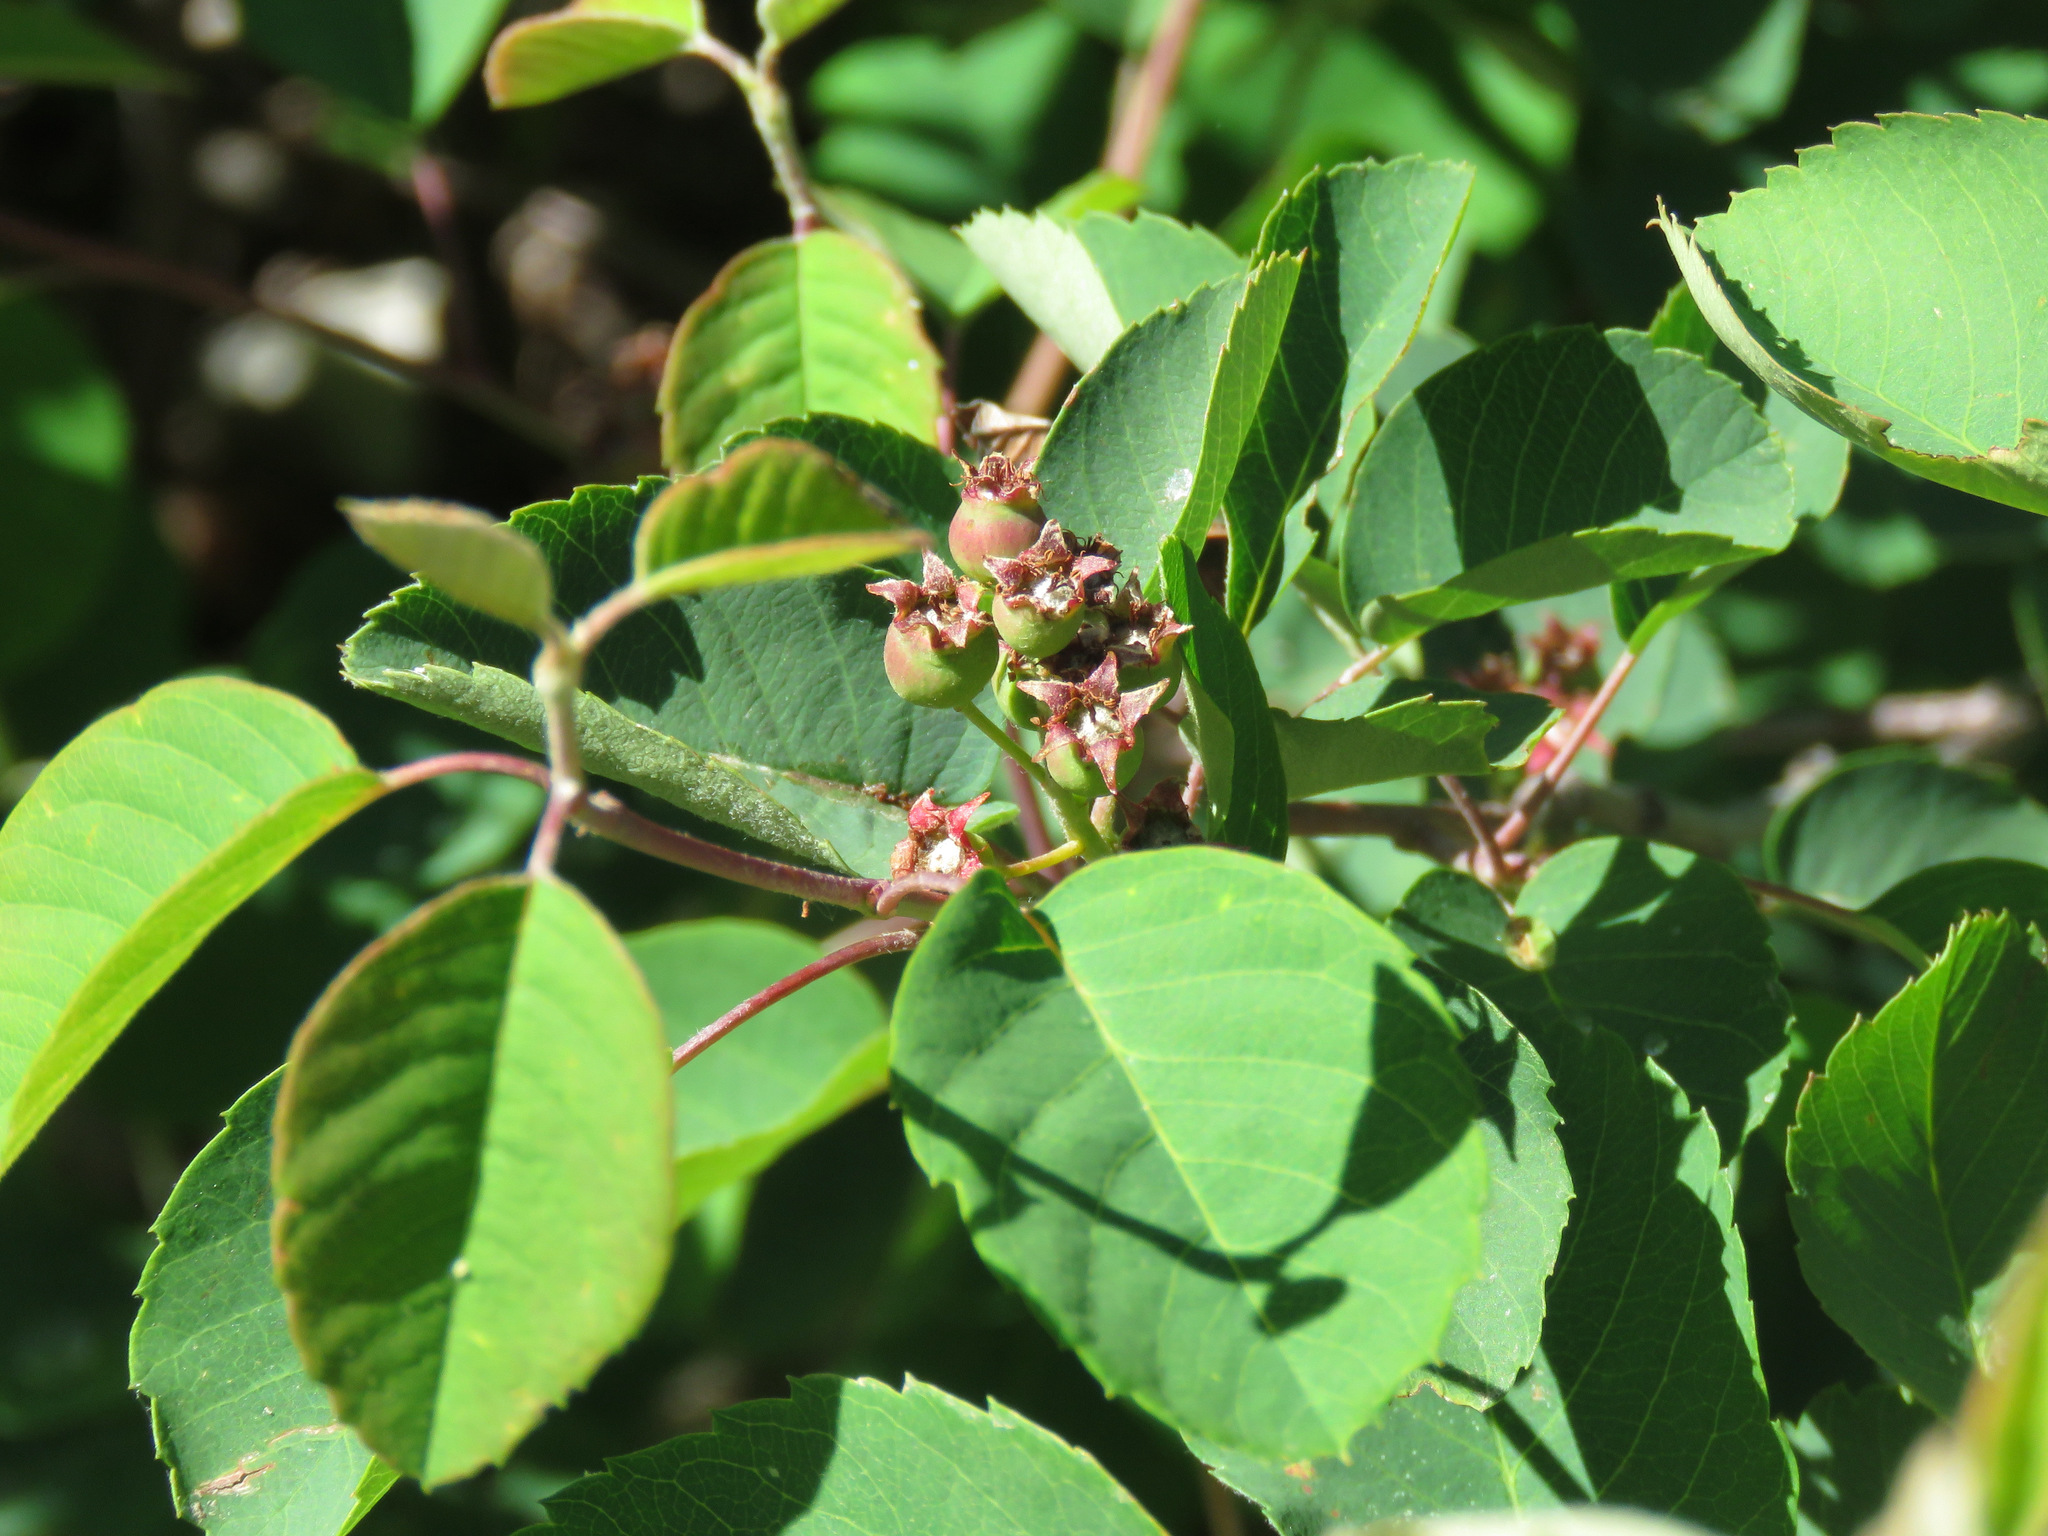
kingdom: Plantae
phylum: Tracheophyta
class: Magnoliopsida
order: Rosales
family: Rosaceae
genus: Amelanchier
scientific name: Amelanchier alnifolia
